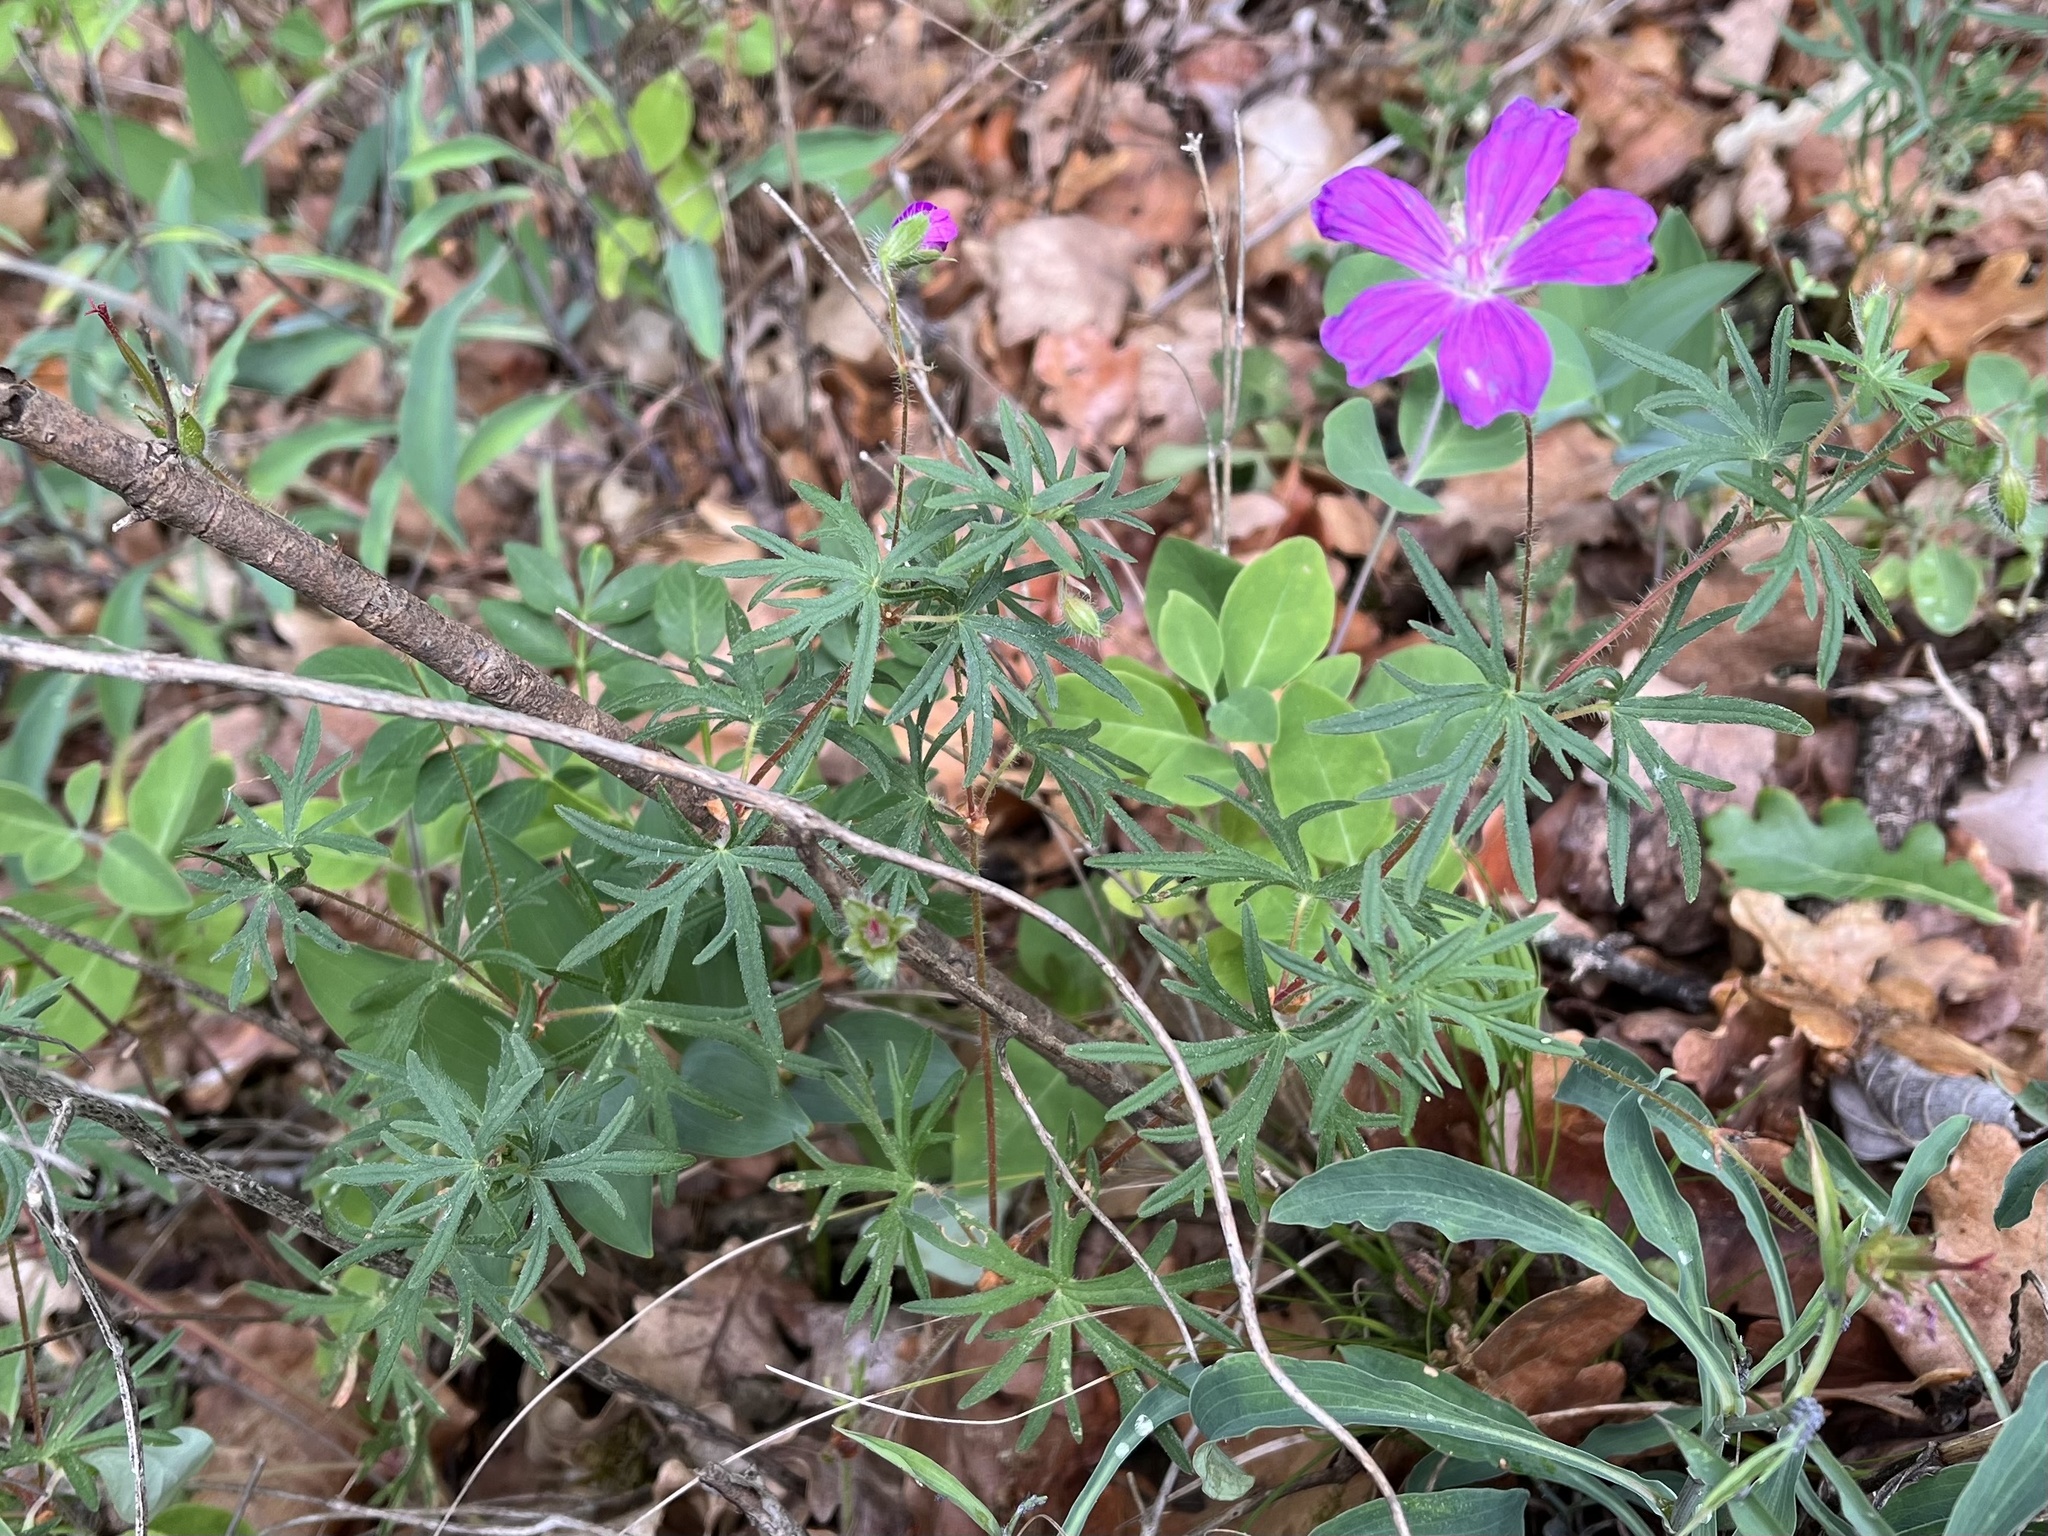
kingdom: Plantae
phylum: Tracheophyta
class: Magnoliopsida
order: Geraniales
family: Geraniaceae
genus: Geranium
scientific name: Geranium sanguineum
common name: Bloody crane's-bill
